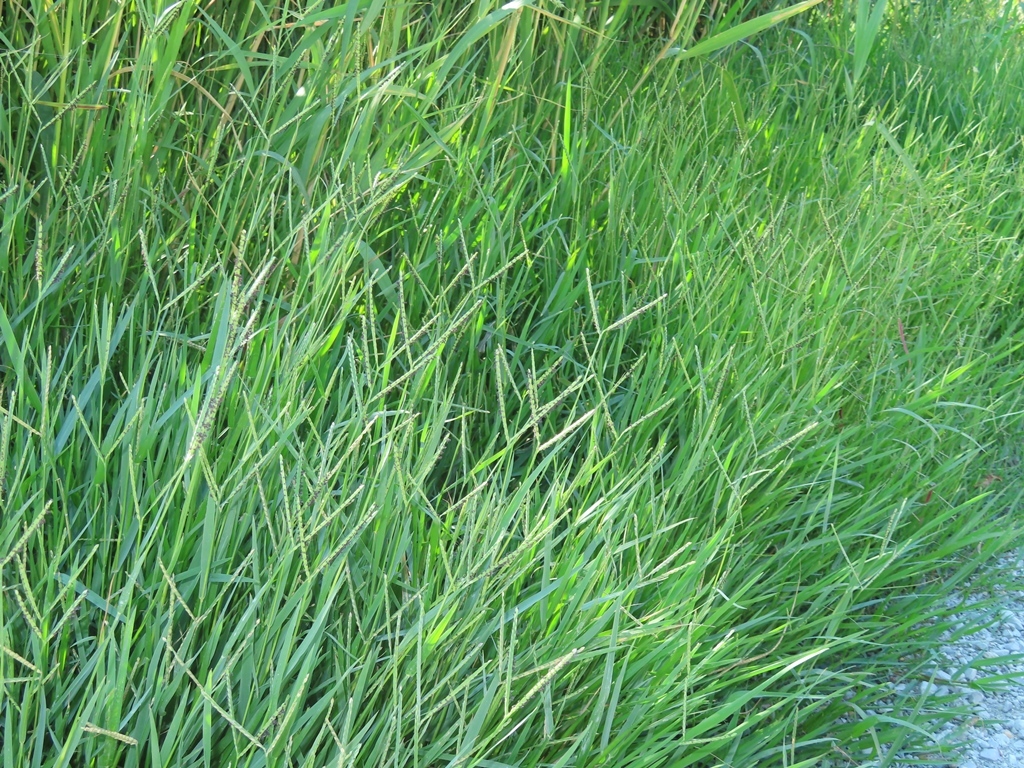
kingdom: Plantae
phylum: Tracheophyta
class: Liliopsida
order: Poales
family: Poaceae
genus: Paspalum
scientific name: Paspalum distichum
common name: Knotgrass
